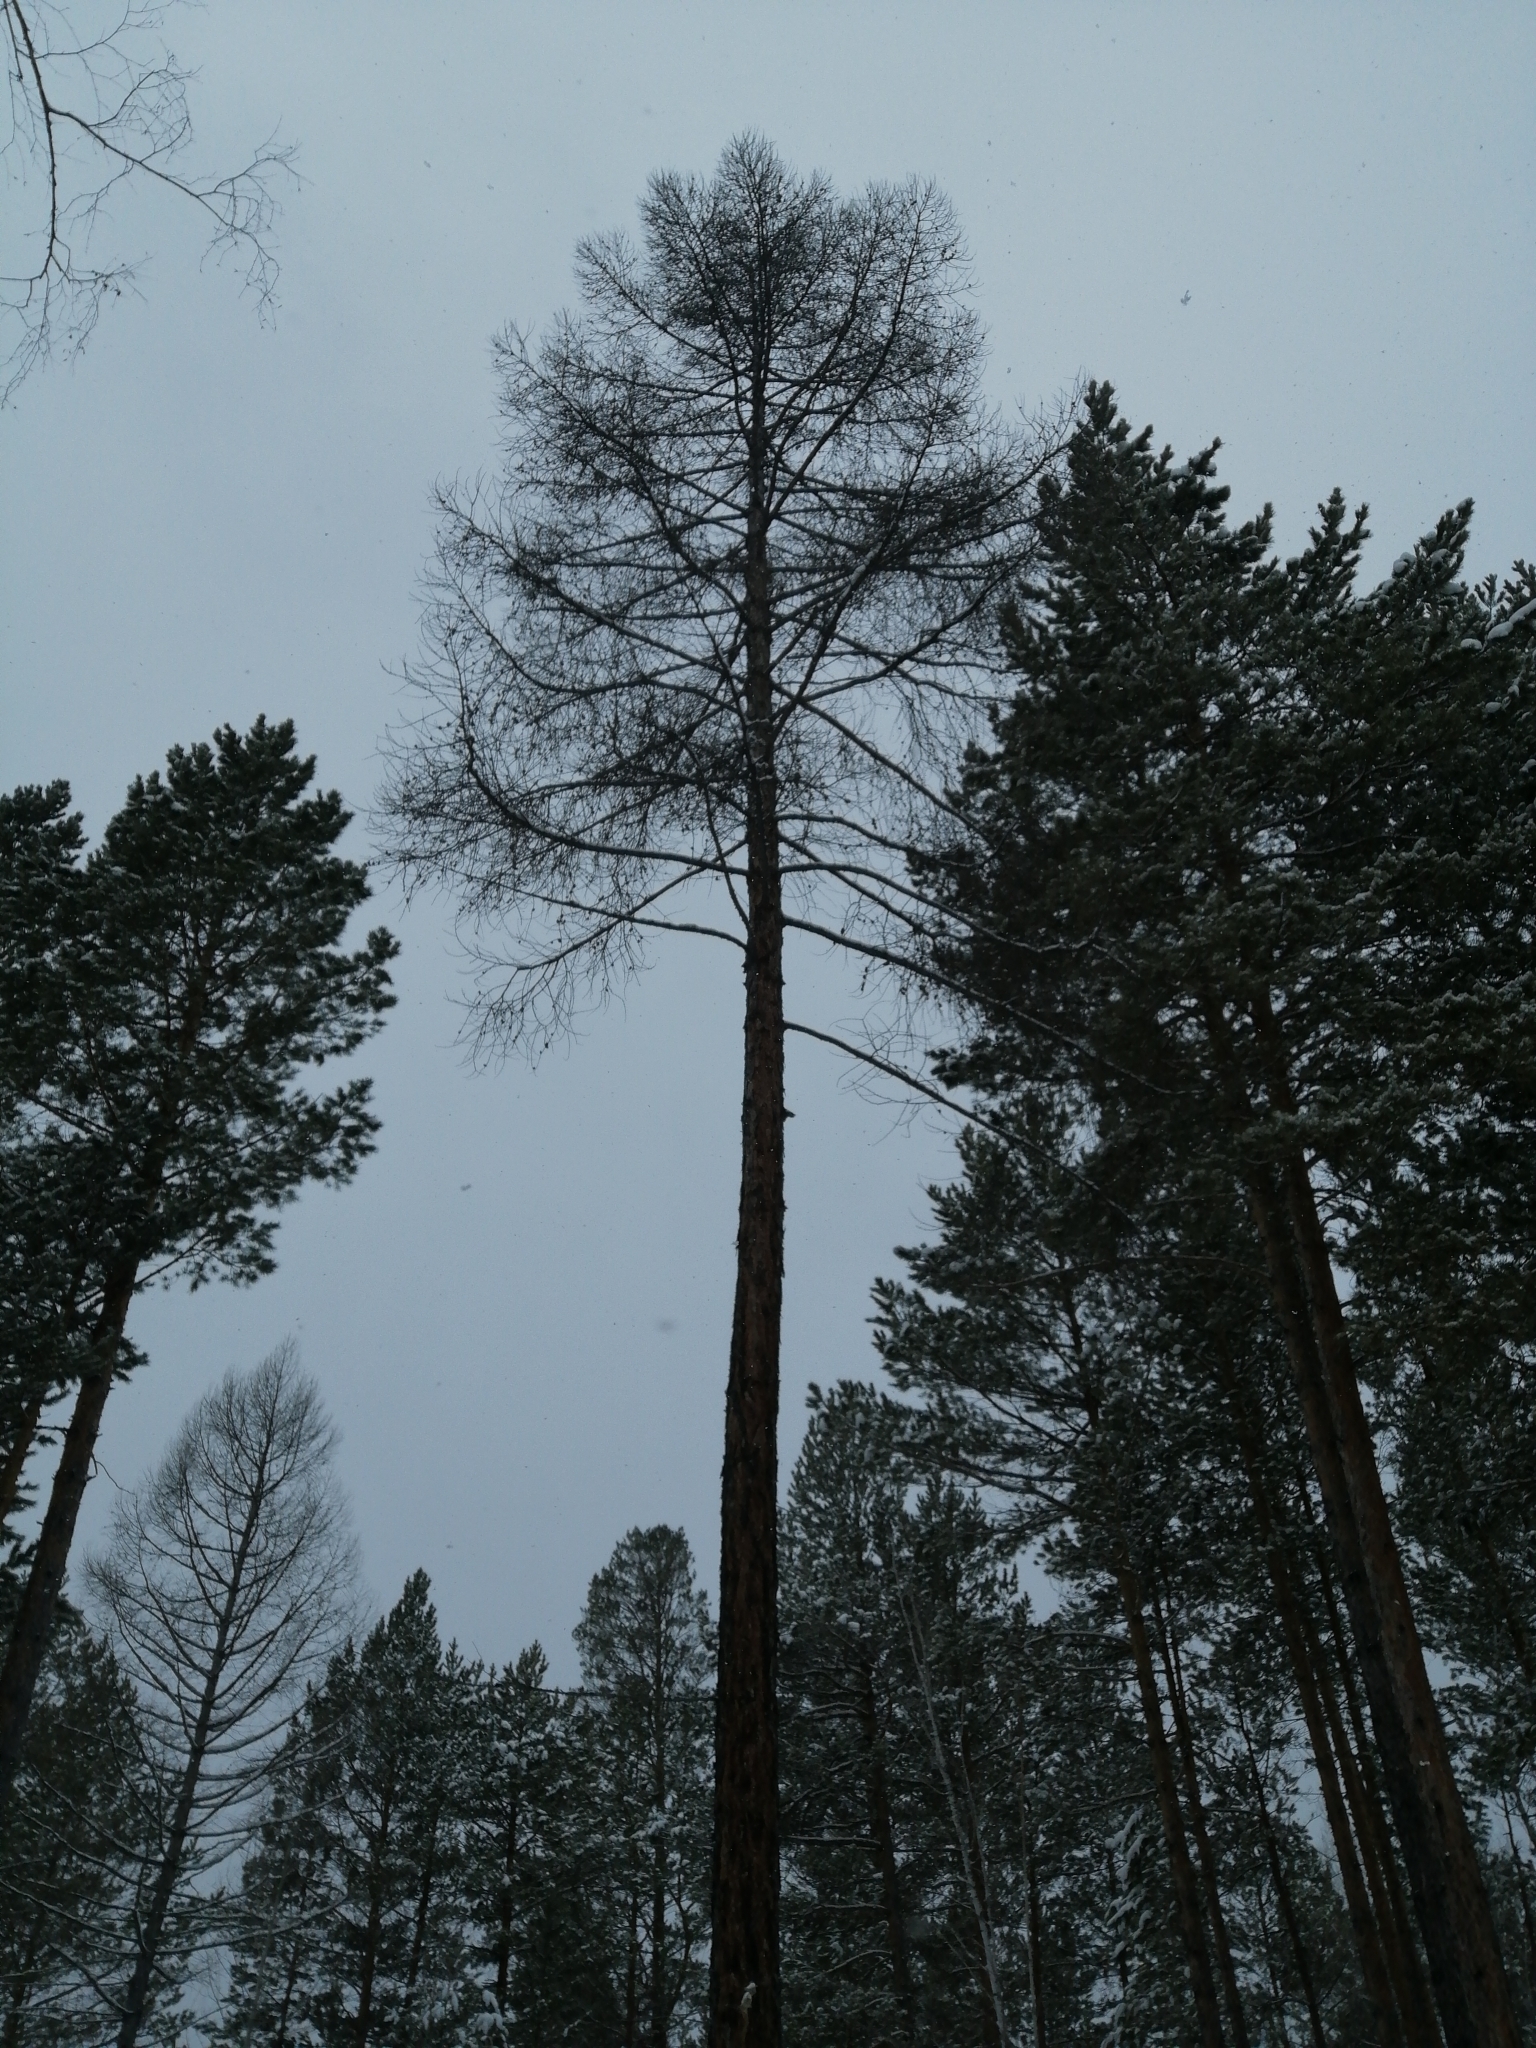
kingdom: Plantae
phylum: Tracheophyta
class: Pinopsida
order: Pinales
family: Pinaceae
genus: Larix
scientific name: Larix sibirica
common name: Siberian larch
